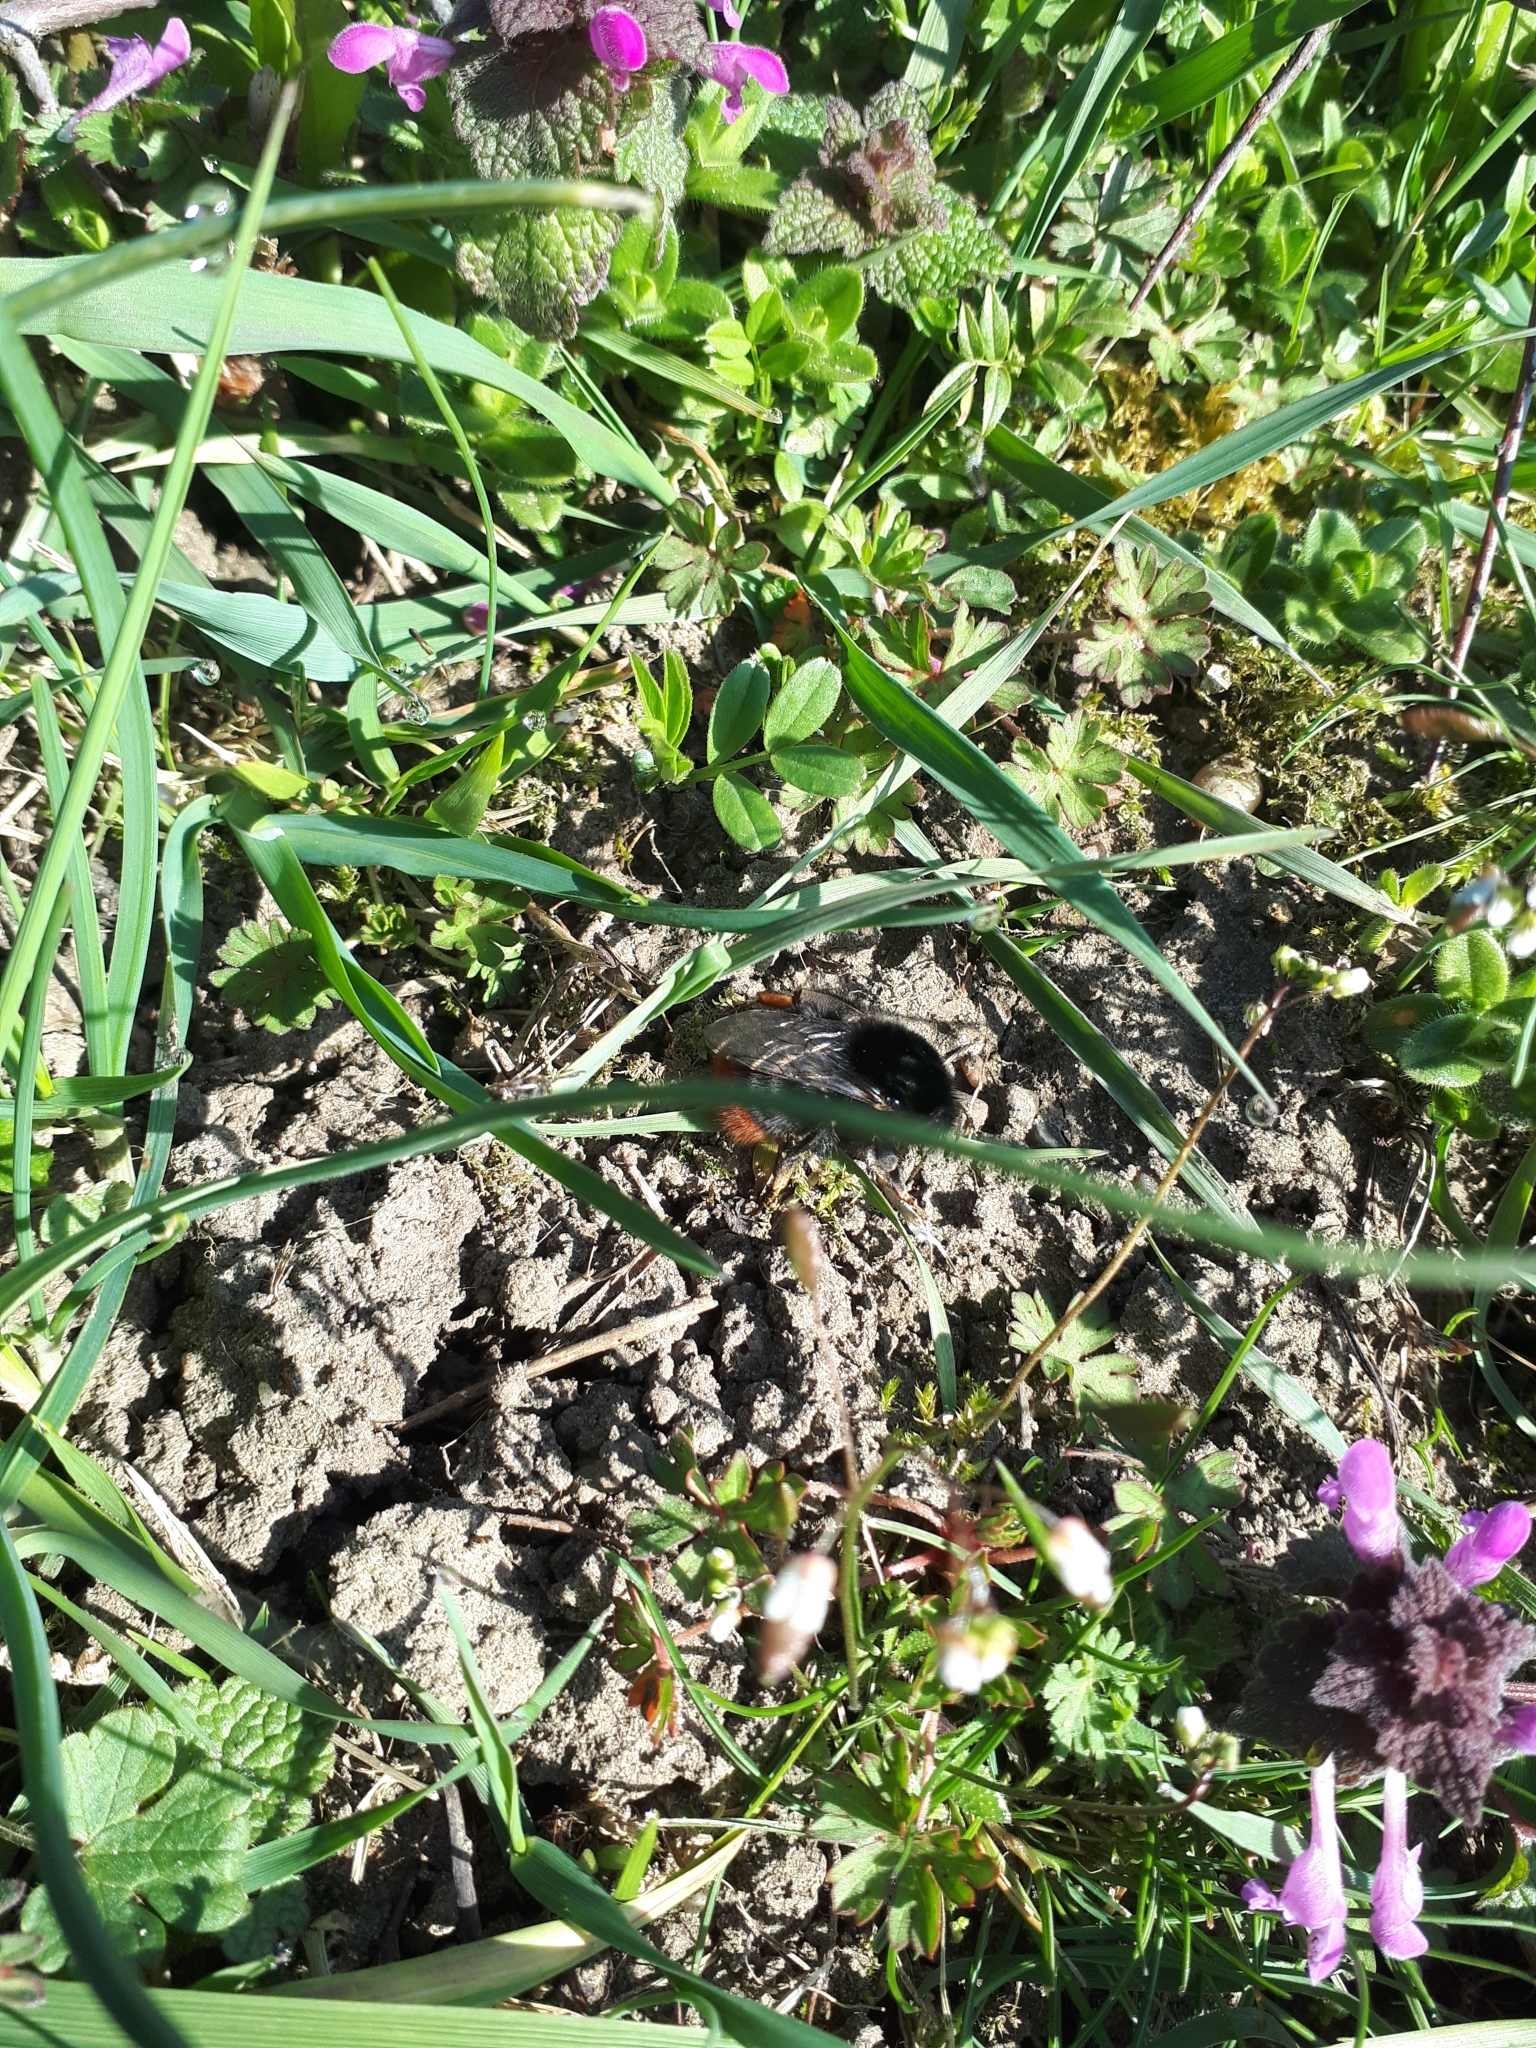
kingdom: Animalia
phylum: Arthropoda
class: Insecta
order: Hymenoptera
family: Apidae
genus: Bombus
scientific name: Bombus lapidarius
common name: Large red-tailed humble-bee
